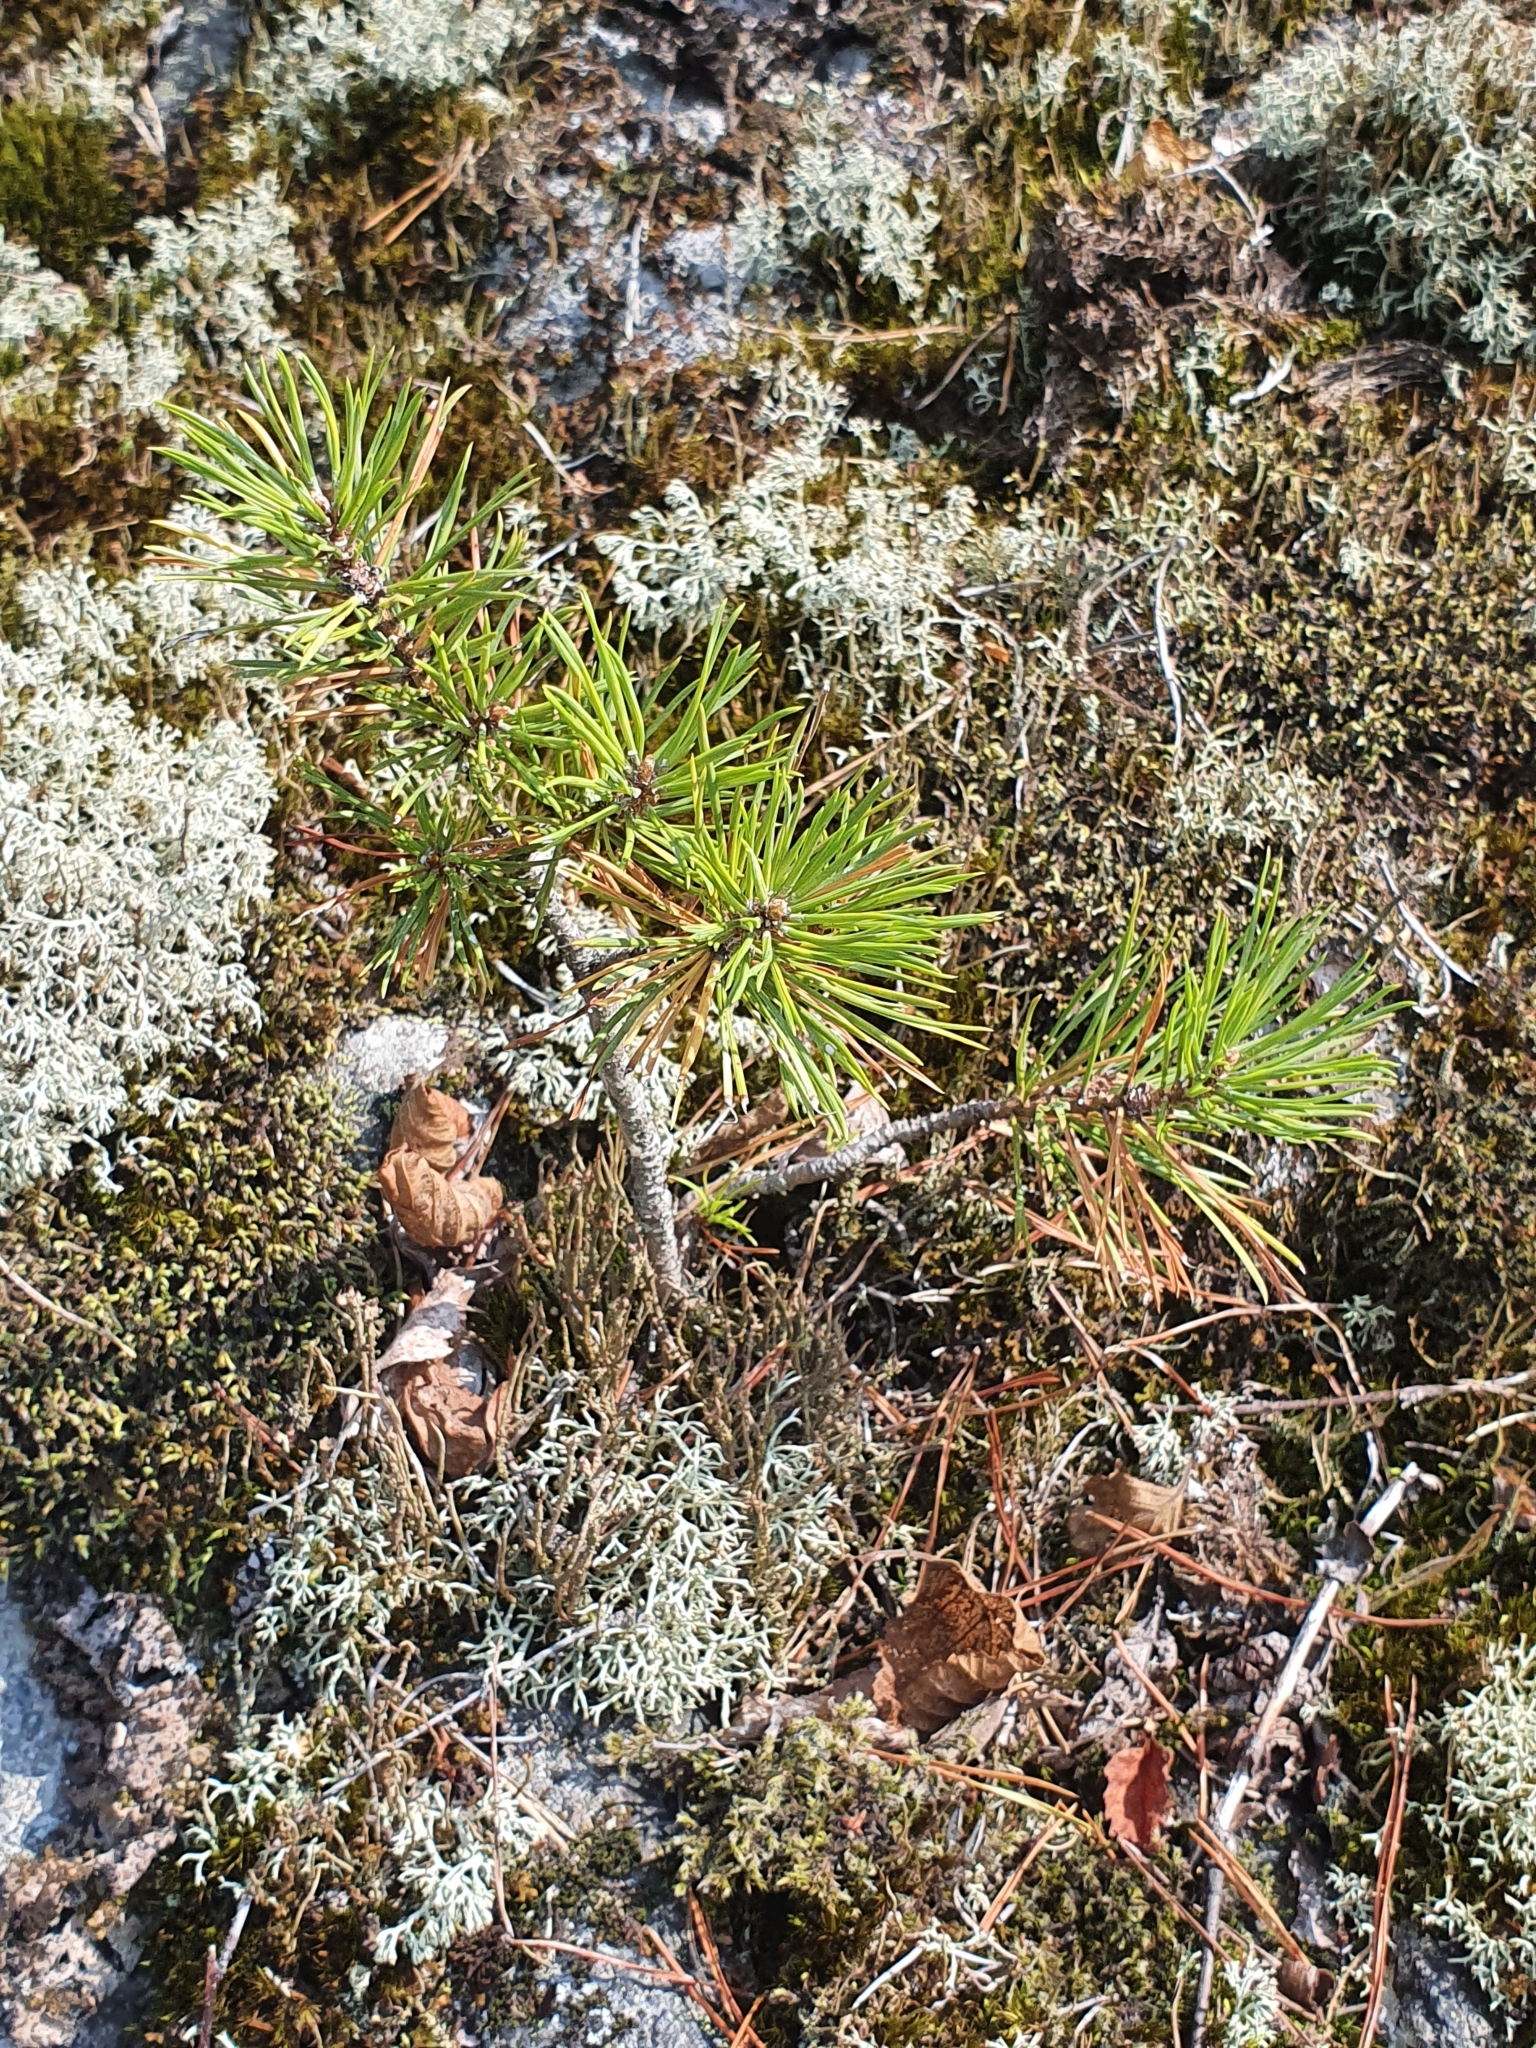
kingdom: Plantae
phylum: Tracheophyta
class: Pinopsida
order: Pinales
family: Pinaceae
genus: Pinus
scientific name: Pinus sylvestris
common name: Scots pine
